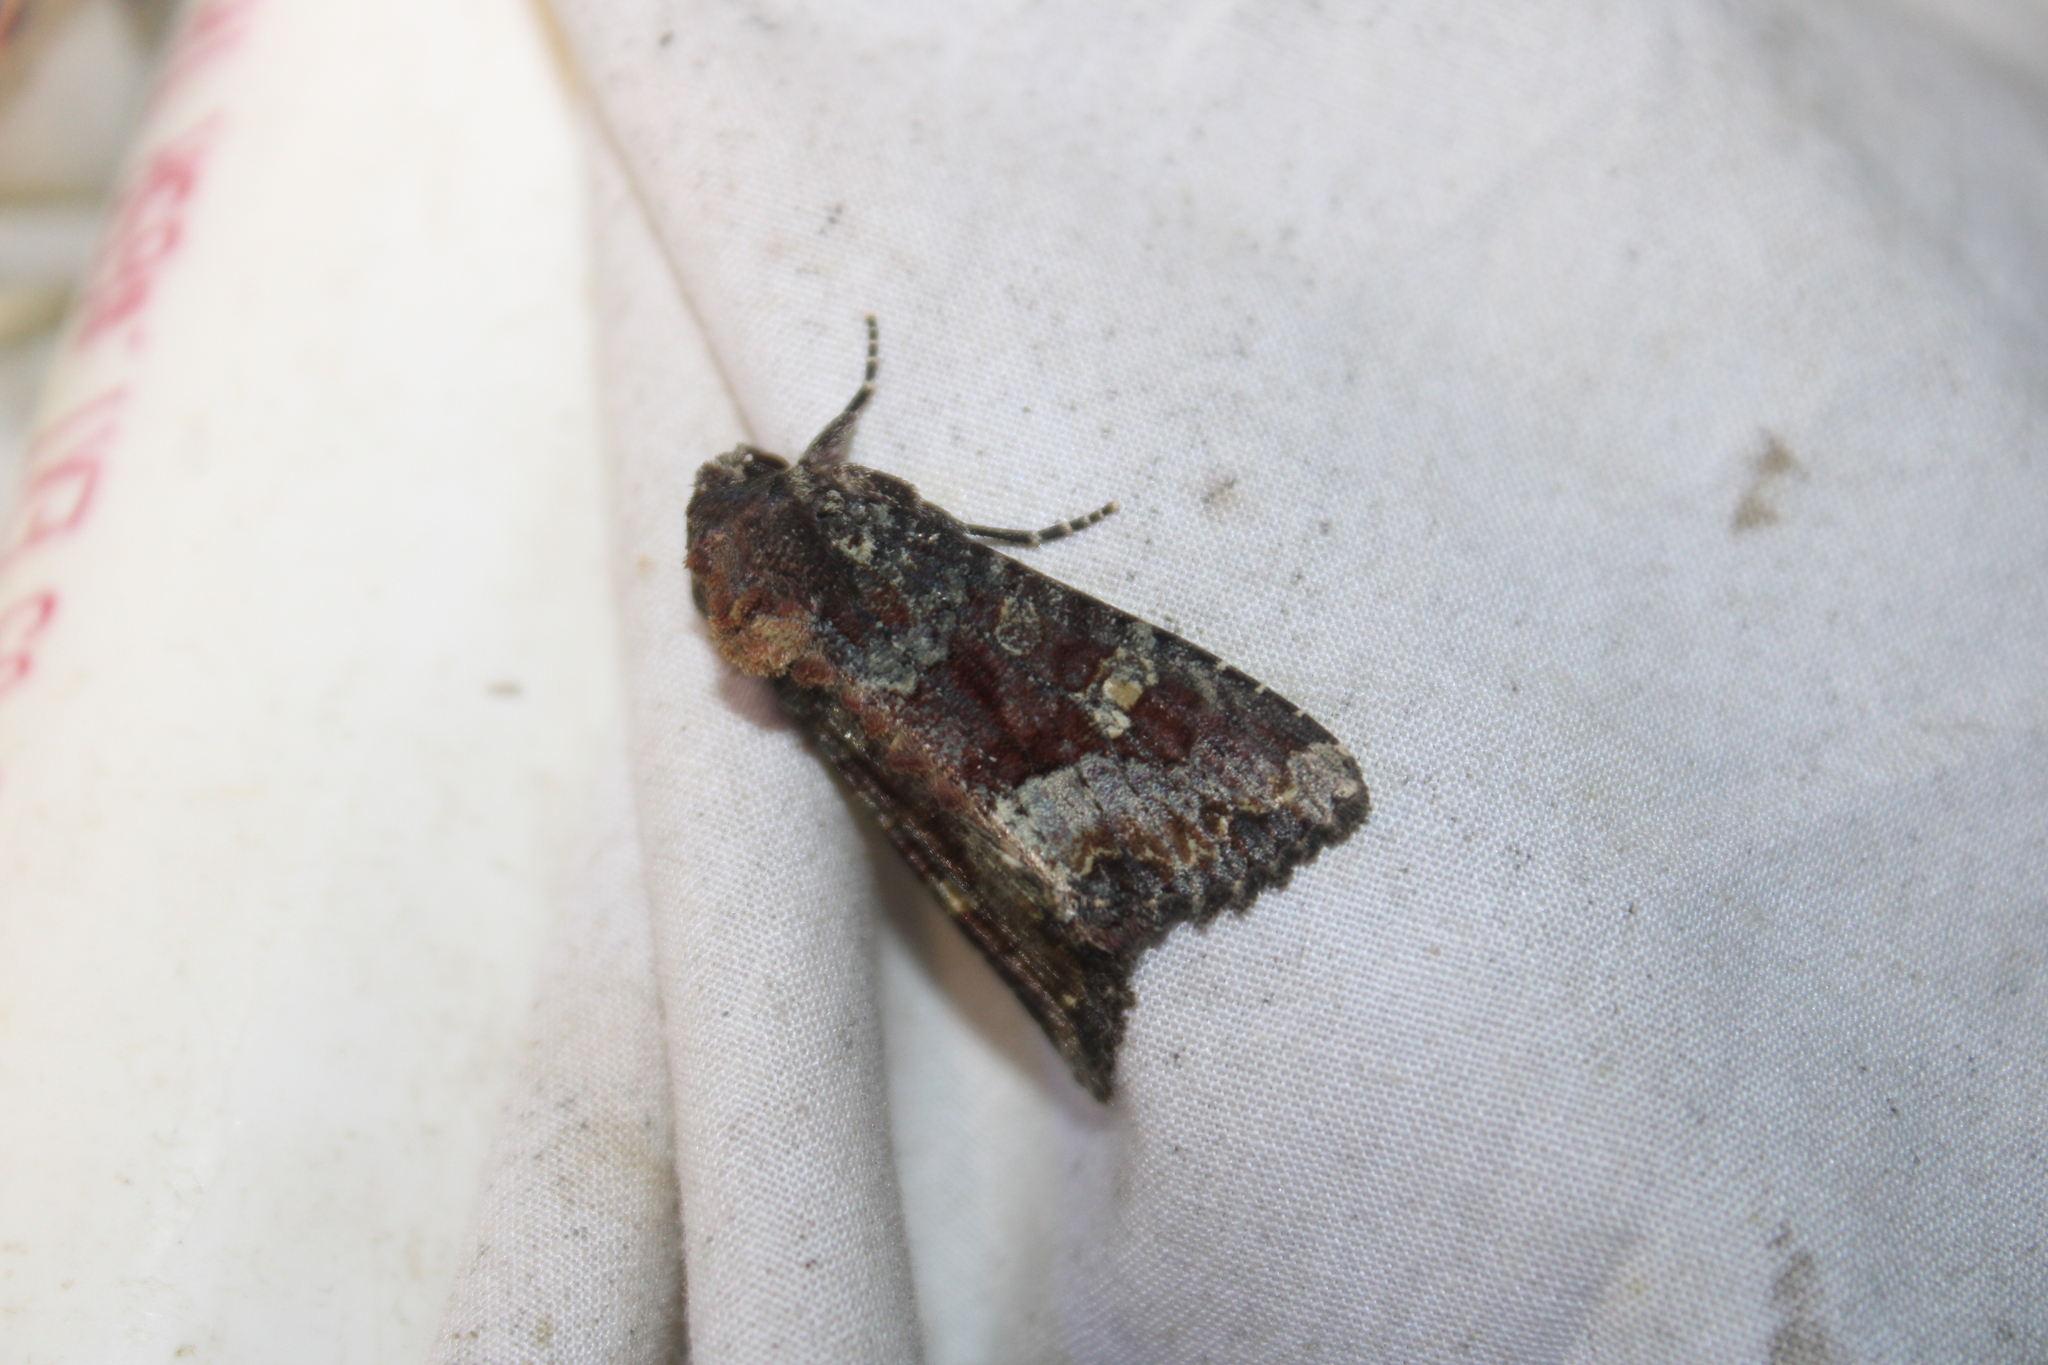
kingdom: Animalia
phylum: Arthropoda
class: Insecta
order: Lepidoptera
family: Noctuidae
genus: Apamea
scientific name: Apamea amputatrix
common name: Yellow-headed cutworm moth
